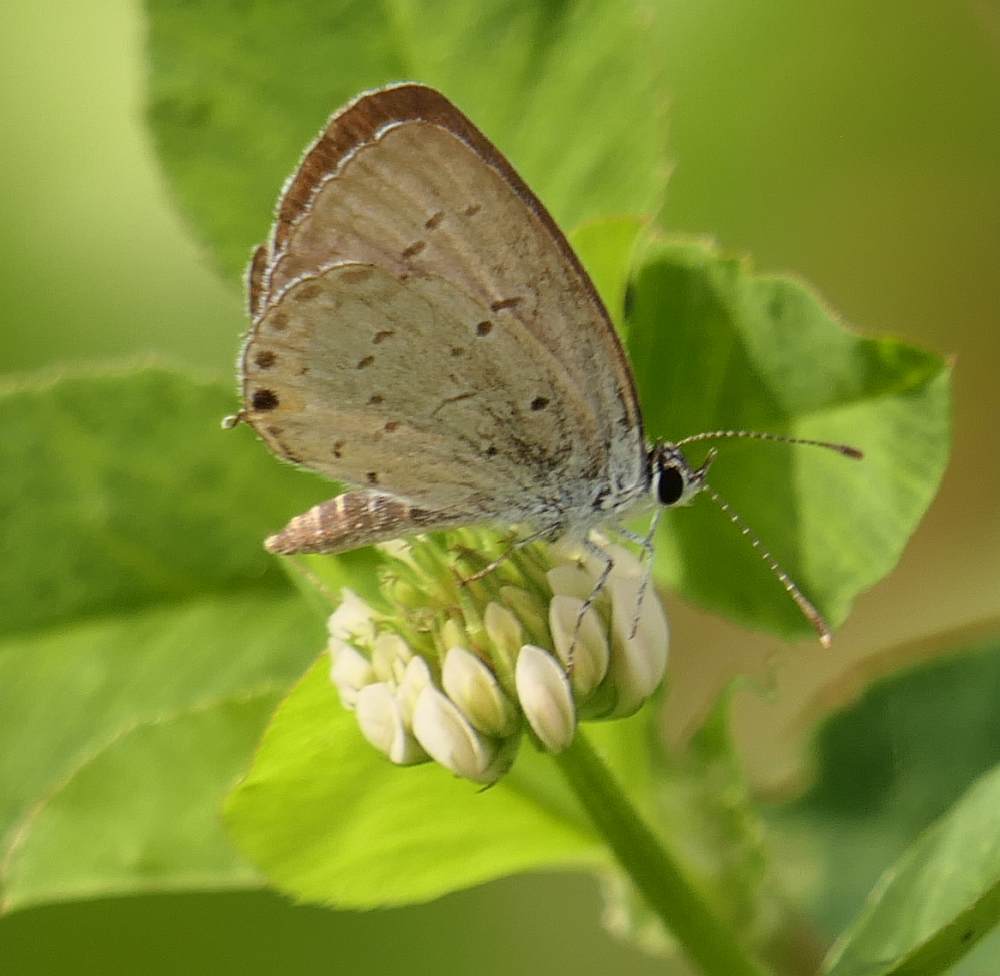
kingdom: Animalia
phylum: Arthropoda
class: Insecta
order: Lepidoptera
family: Lycaenidae
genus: Elkalyce
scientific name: Elkalyce comyntas
